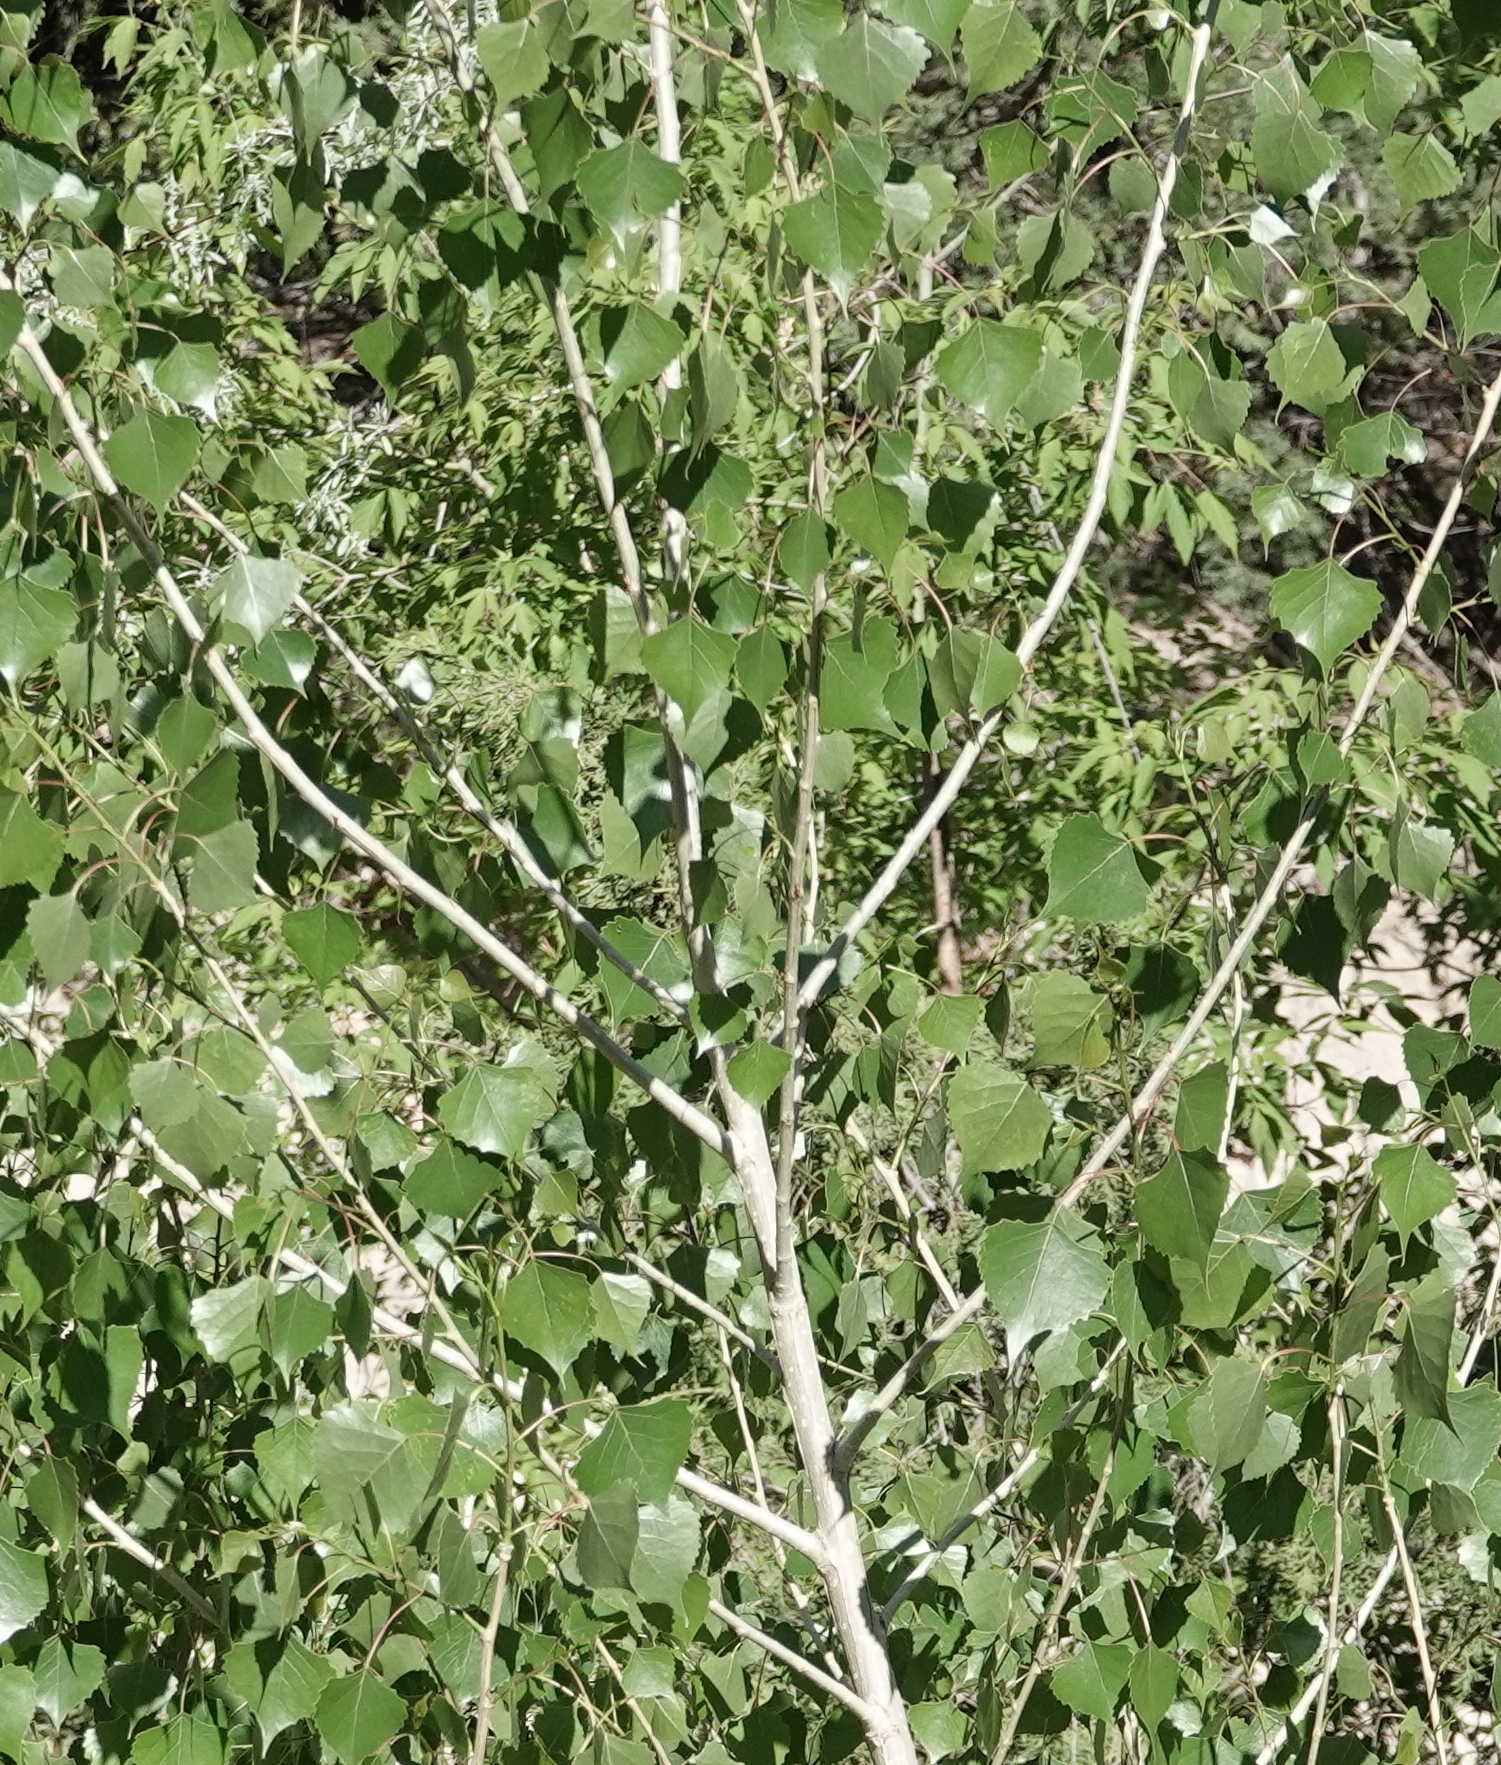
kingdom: Plantae
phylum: Tracheophyta
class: Magnoliopsida
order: Malpighiales
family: Salicaceae
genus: Populus
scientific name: Populus deltoides
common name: Eastern cottonwood
